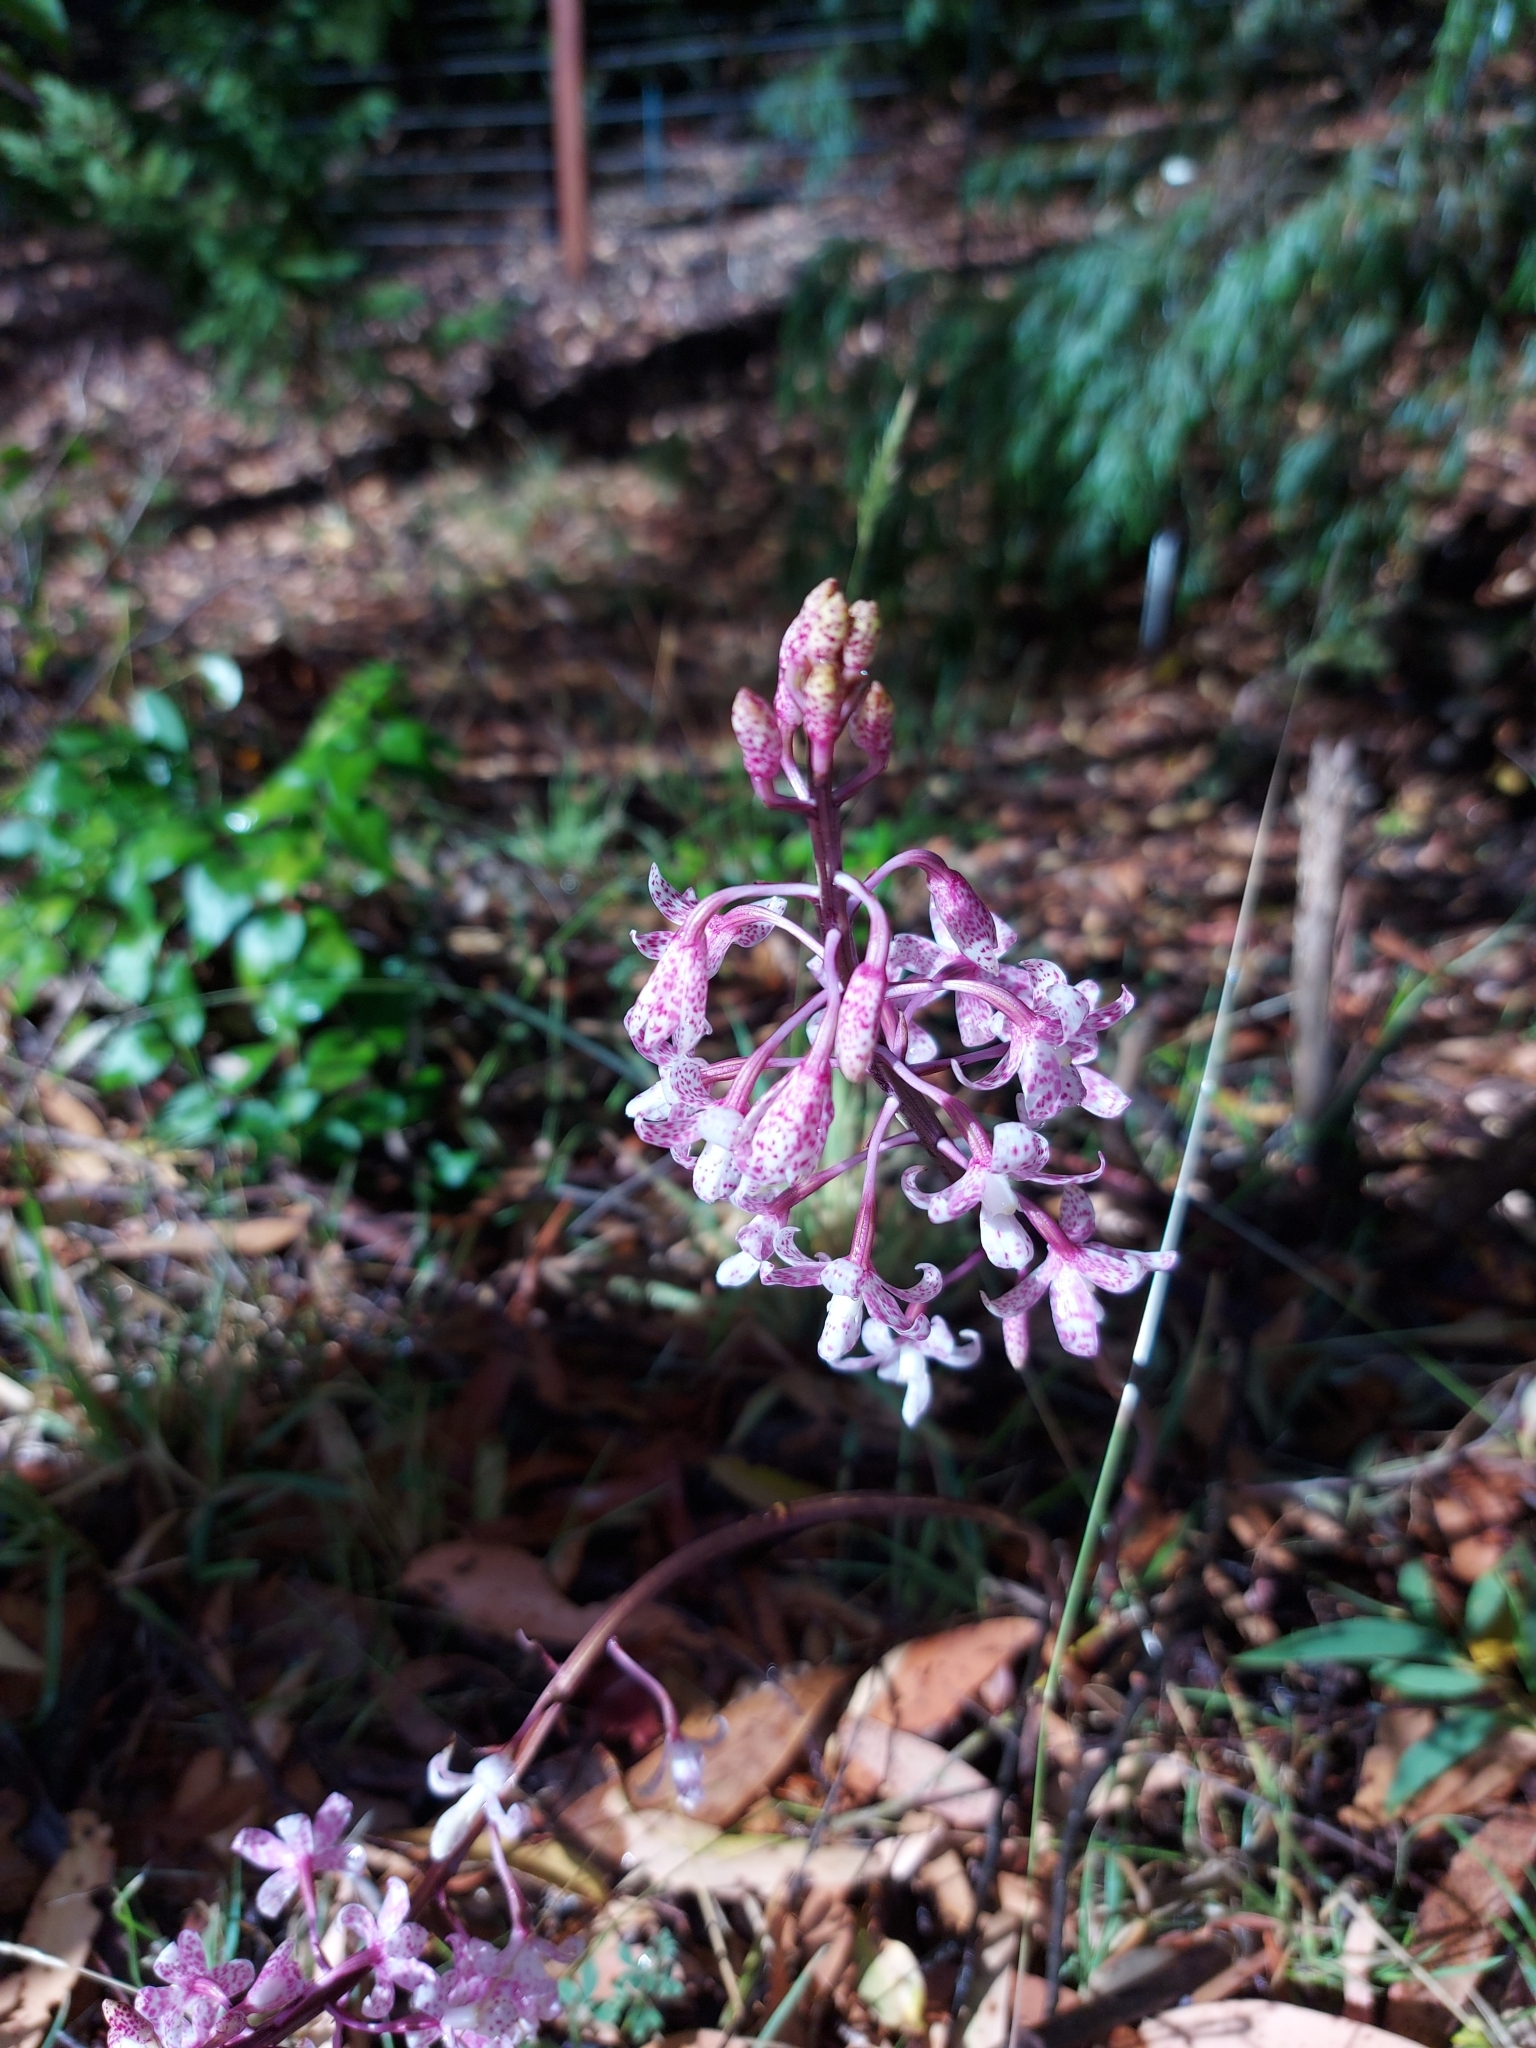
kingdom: Plantae
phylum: Tracheophyta
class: Liliopsida
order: Asparagales
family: Orchidaceae
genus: Dipodium
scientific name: Dipodium pardalinum
